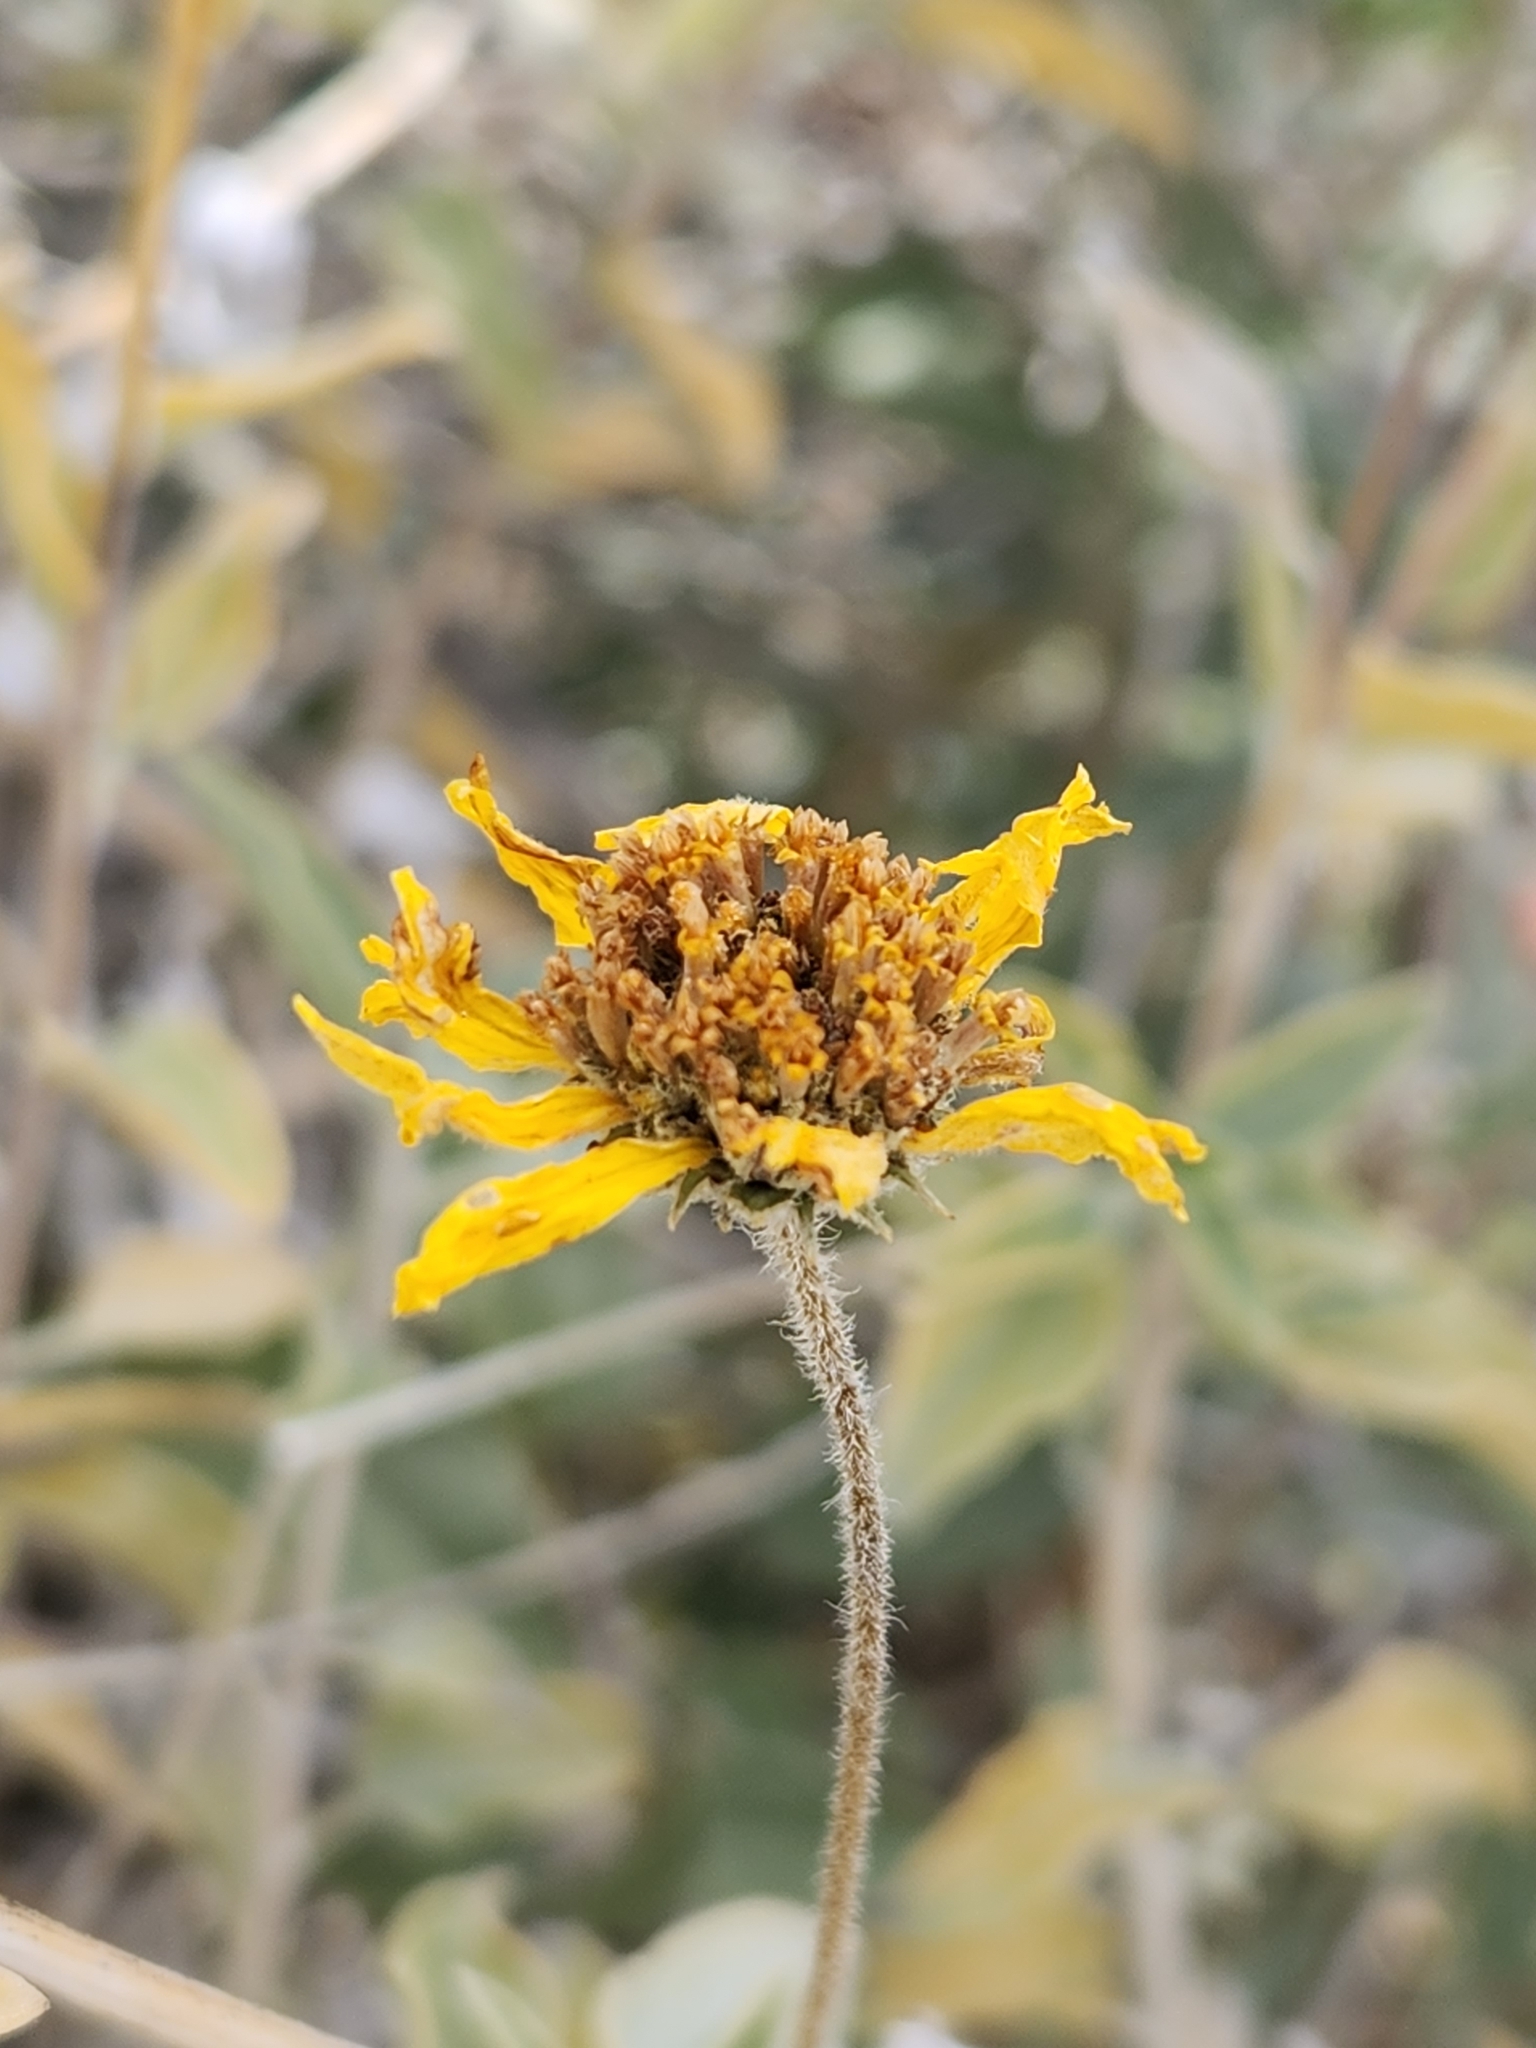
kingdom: Plantae
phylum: Tracheophyta
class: Magnoliopsida
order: Asterales
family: Asteraceae
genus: Encelia
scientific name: Encelia actoni
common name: Acton encelia
